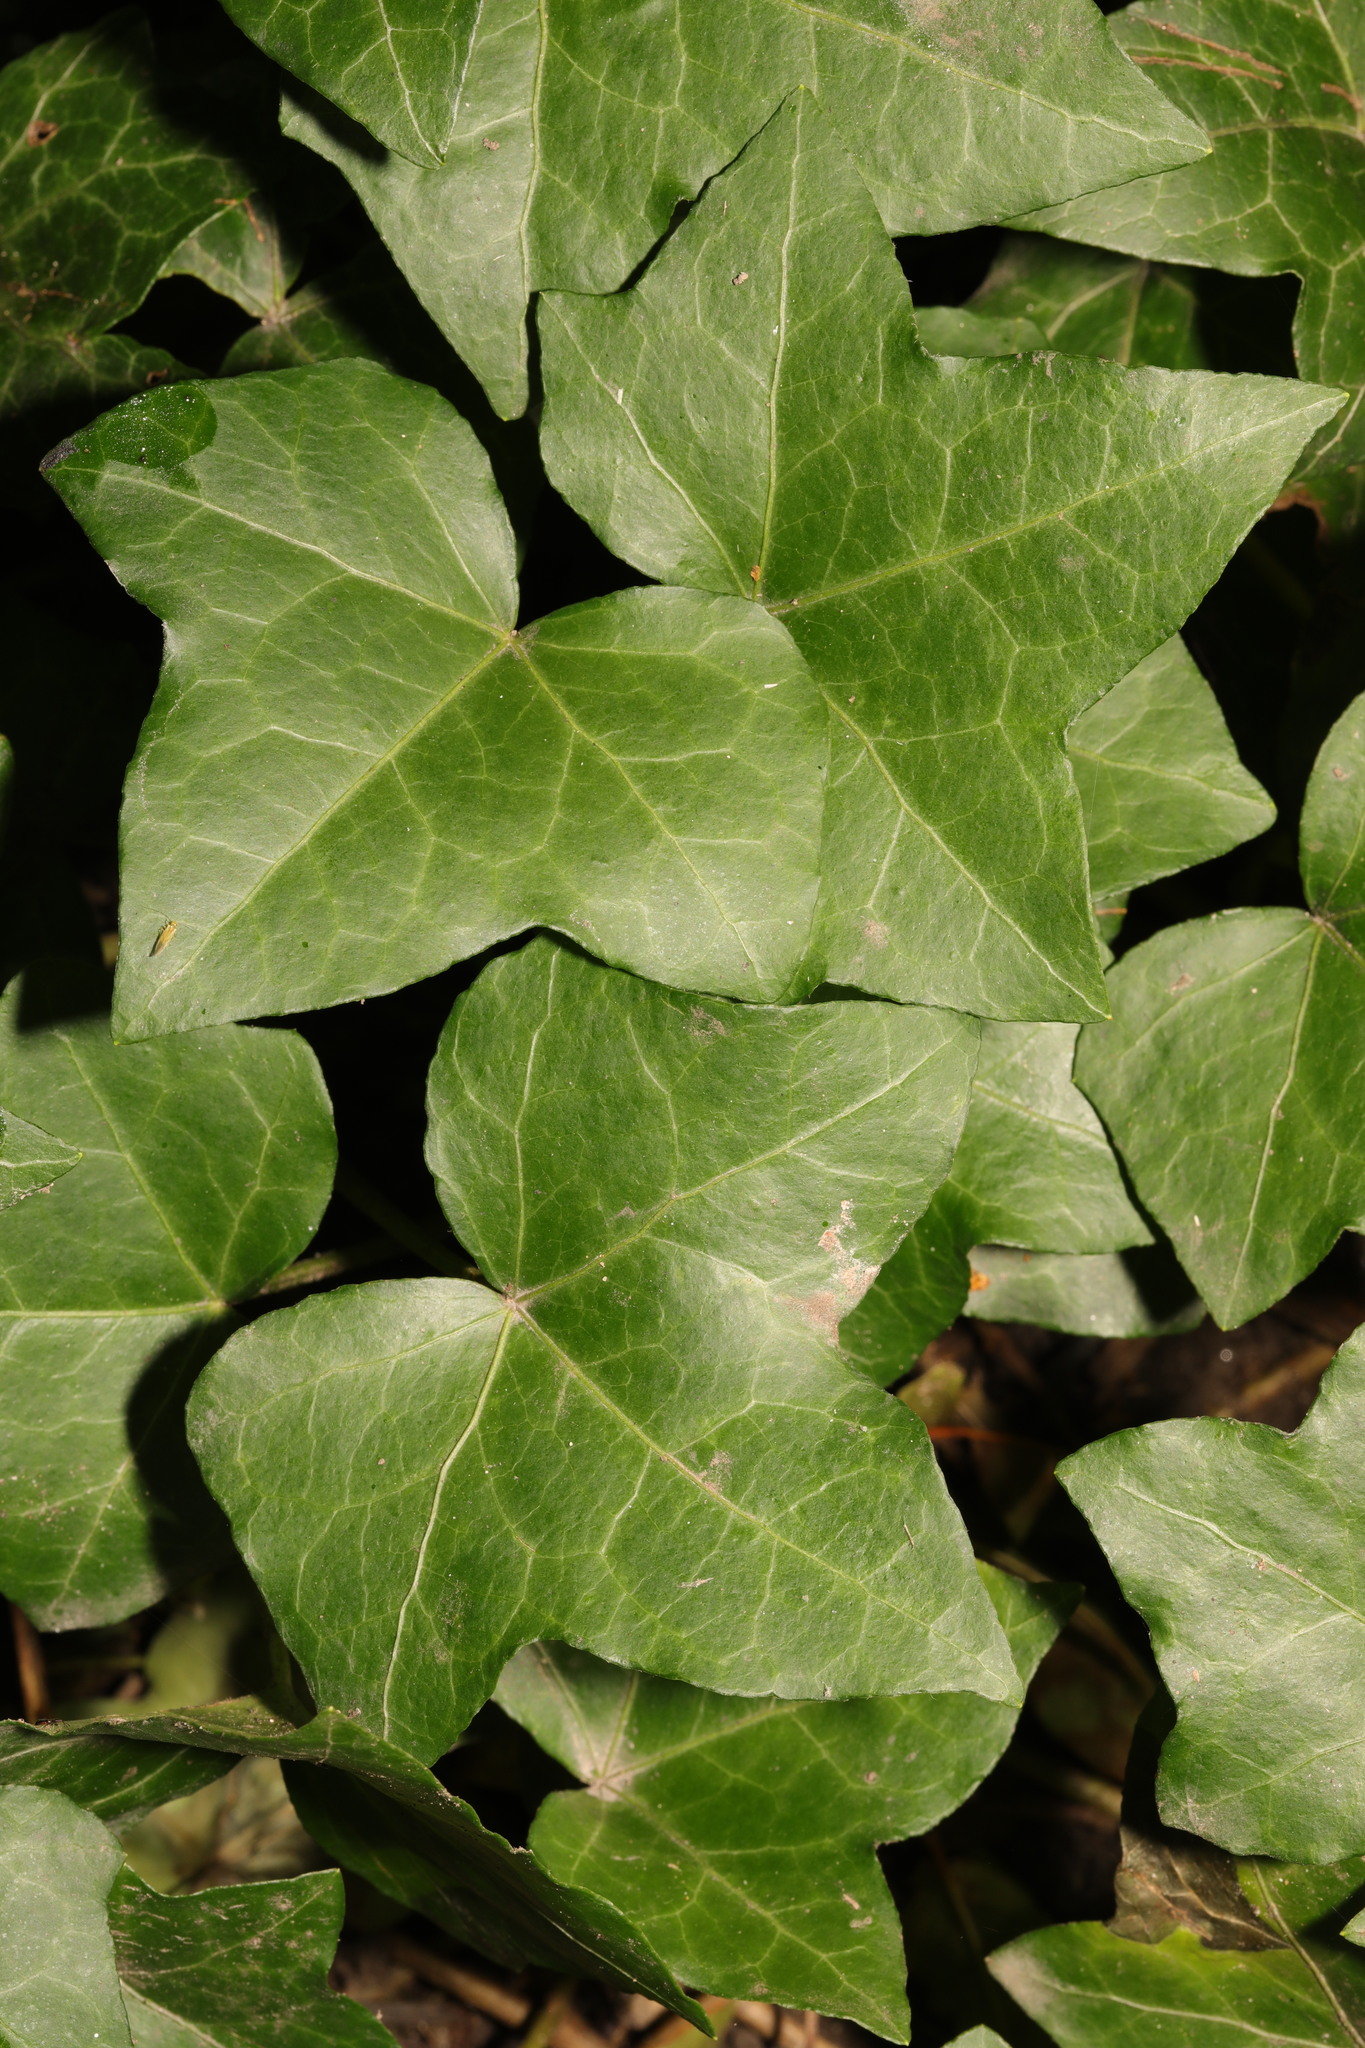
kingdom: Plantae
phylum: Tracheophyta
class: Magnoliopsida
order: Apiales
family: Araliaceae
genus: Hedera
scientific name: Hedera helix
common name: Ivy
